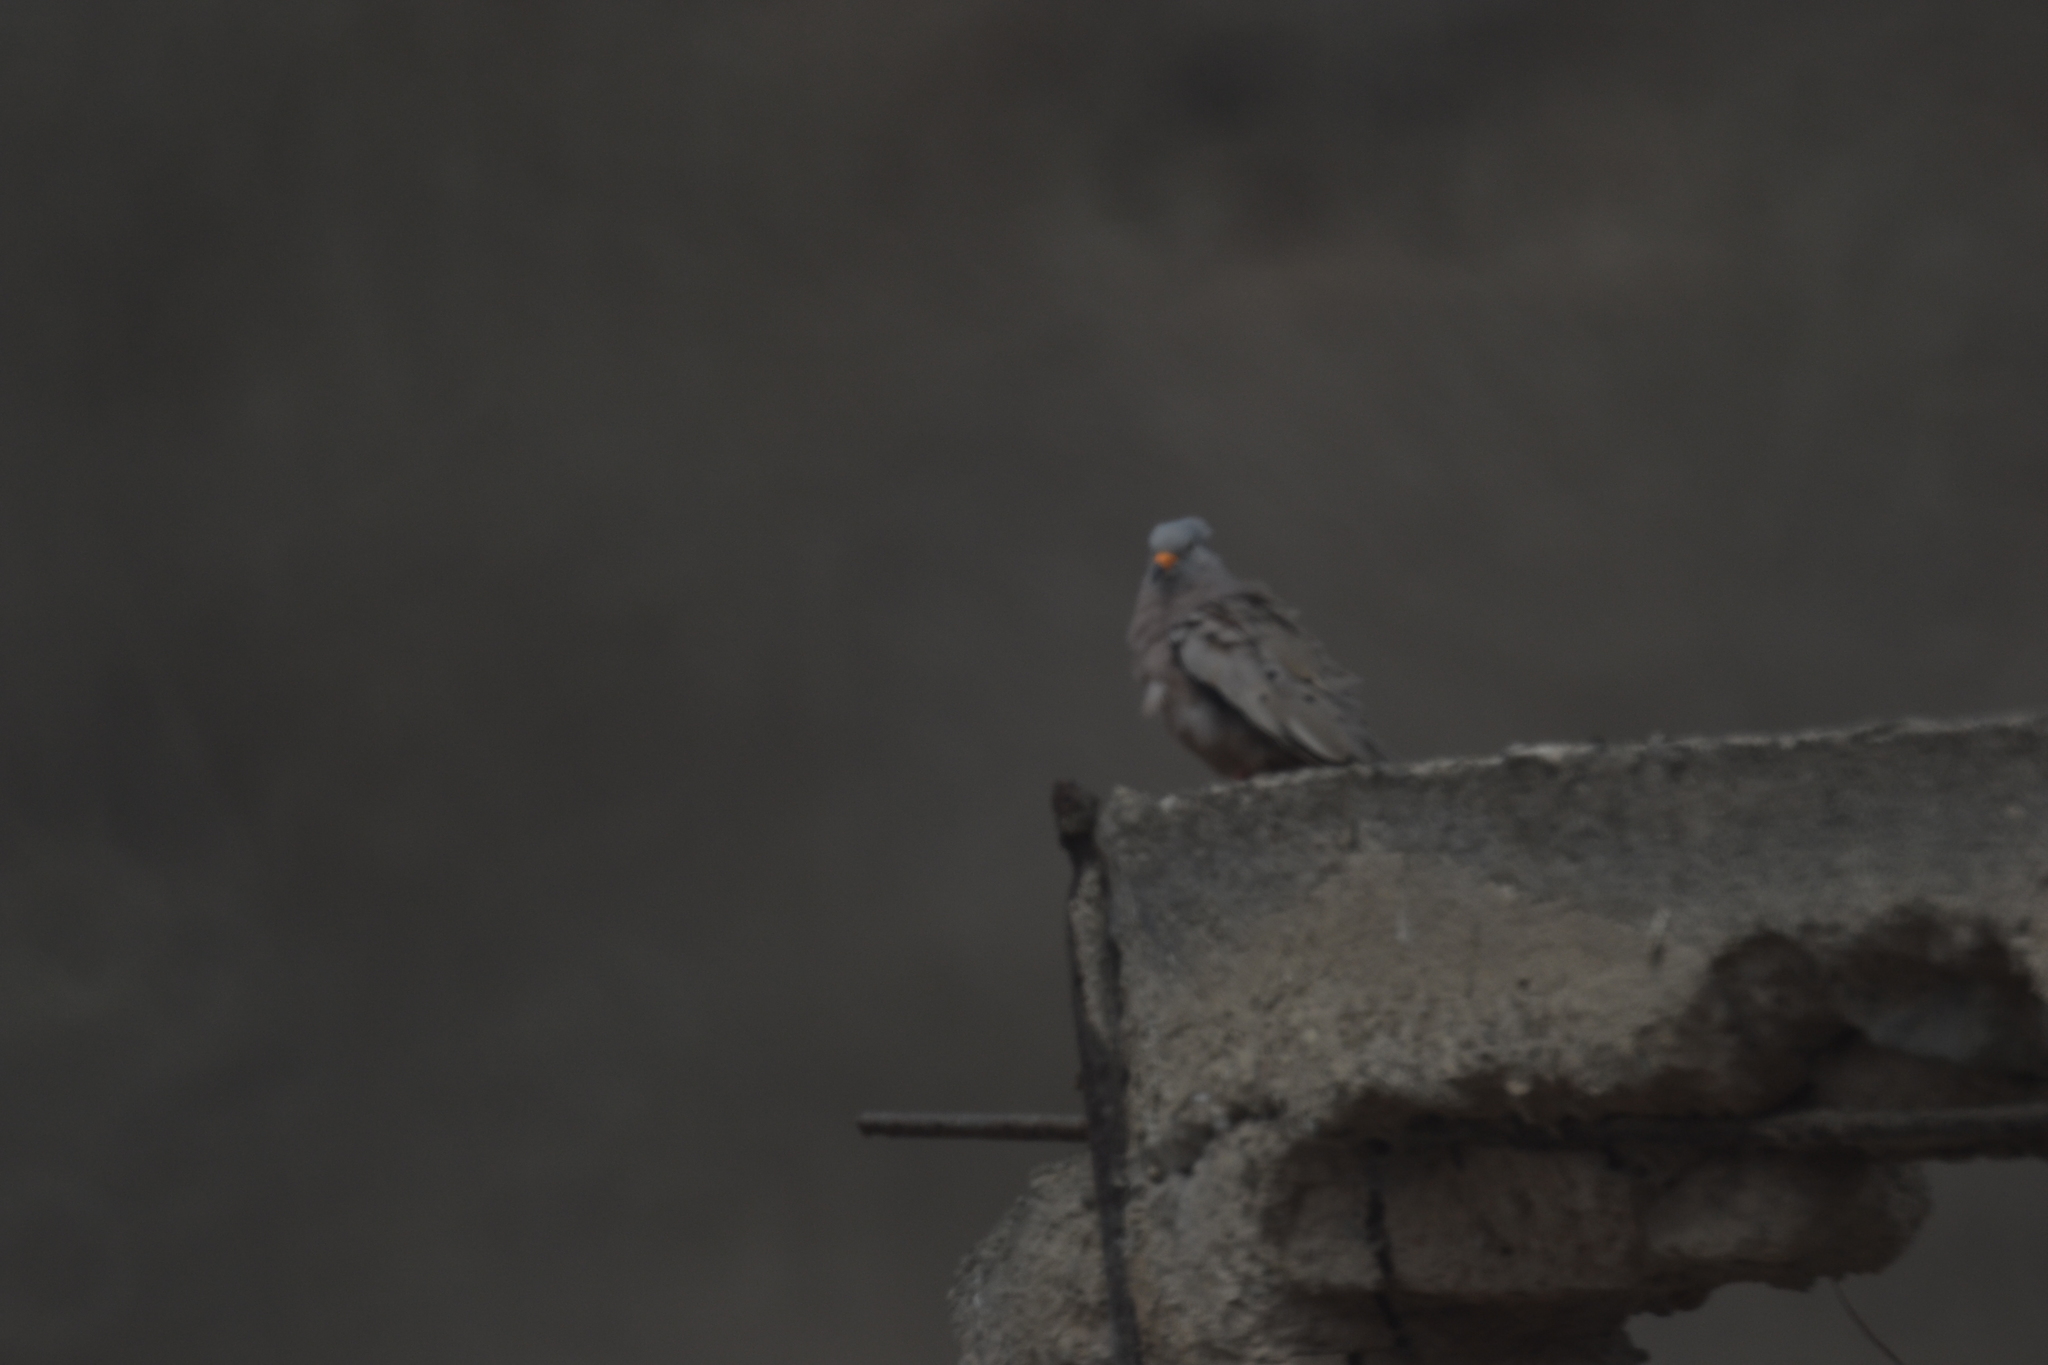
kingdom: Animalia
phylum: Chordata
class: Aves
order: Columbiformes
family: Columbidae
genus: Columbina
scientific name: Columbina cruziana
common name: Croaking ground dove
